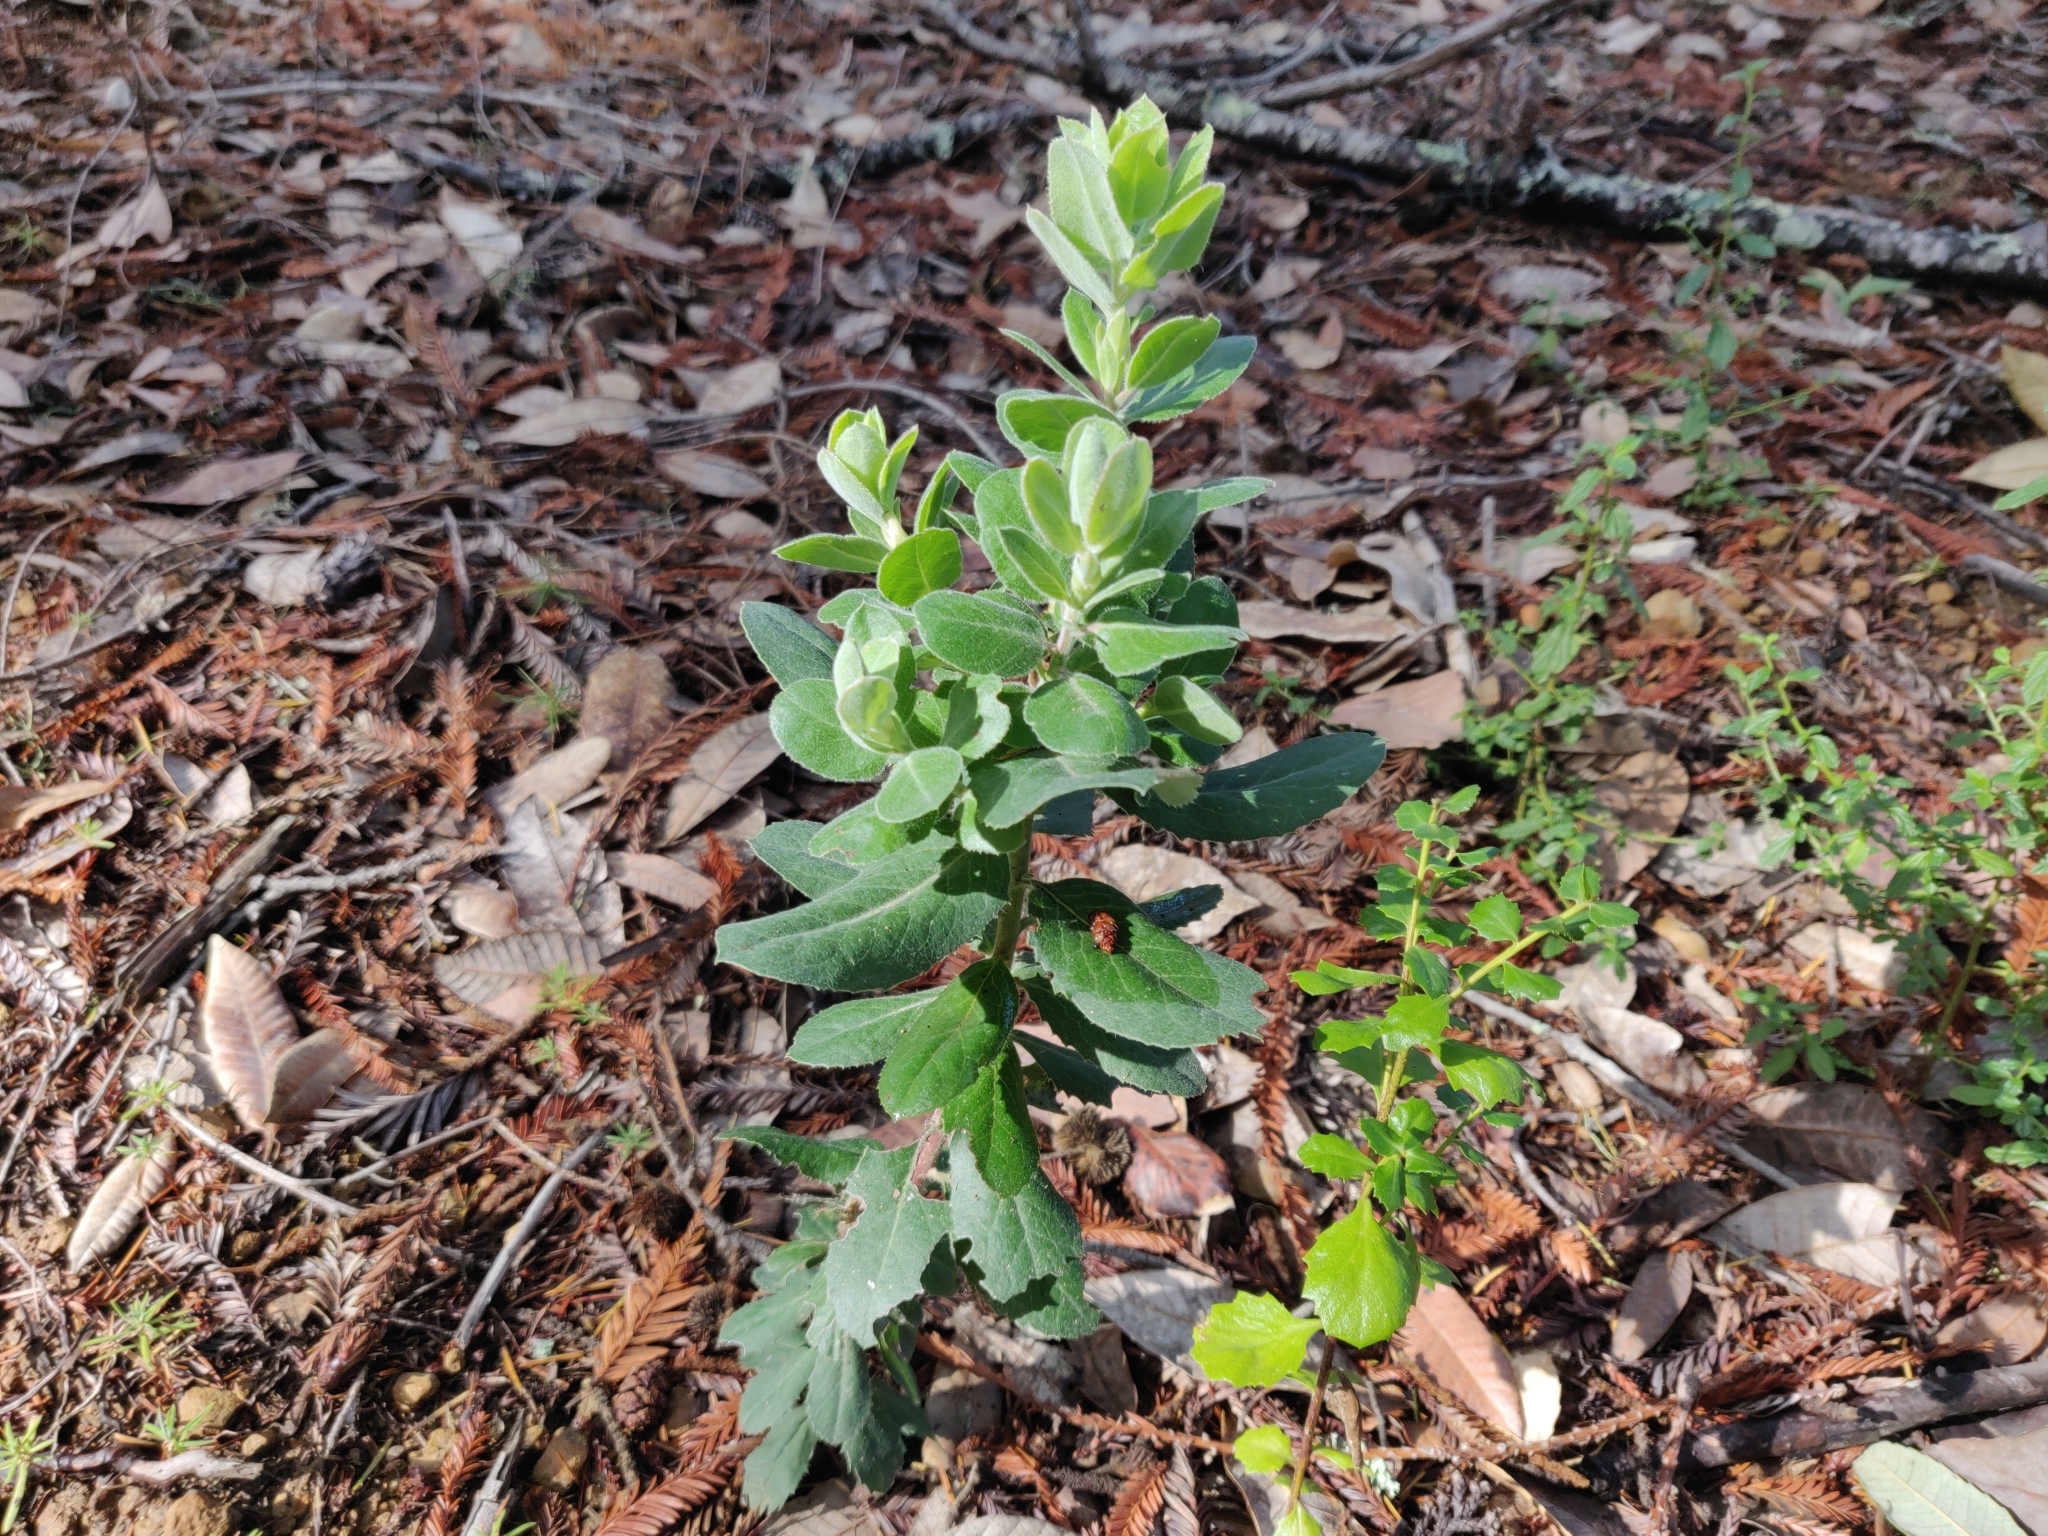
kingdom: Plantae
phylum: Tracheophyta
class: Magnoliopsida
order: Ericales
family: Ericaceae
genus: Arctostaphylos
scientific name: Arctostaphylos crustacea
